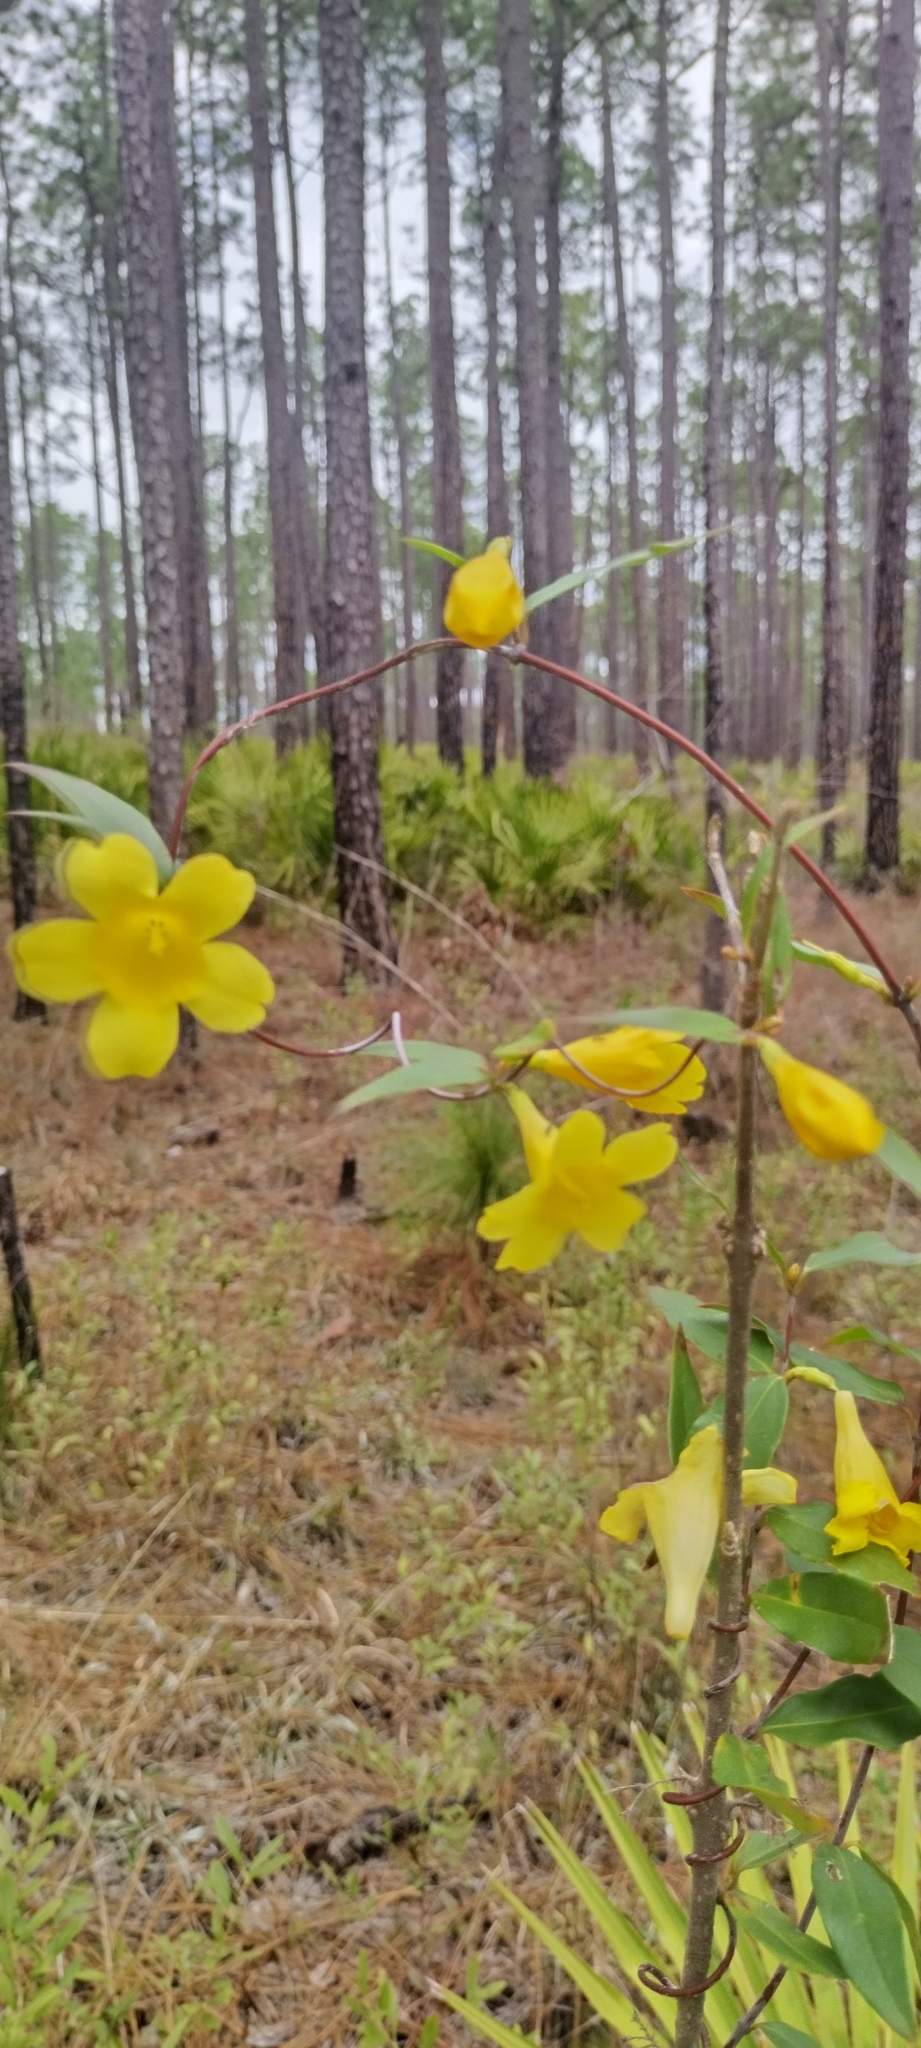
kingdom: Plantae
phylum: Tracheophyta
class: Magnoliopsida
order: Gentianales
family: Gelsemiaceae
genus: Gelsemium
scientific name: Gelsemium sempervirens
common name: Carolina-jasmine
